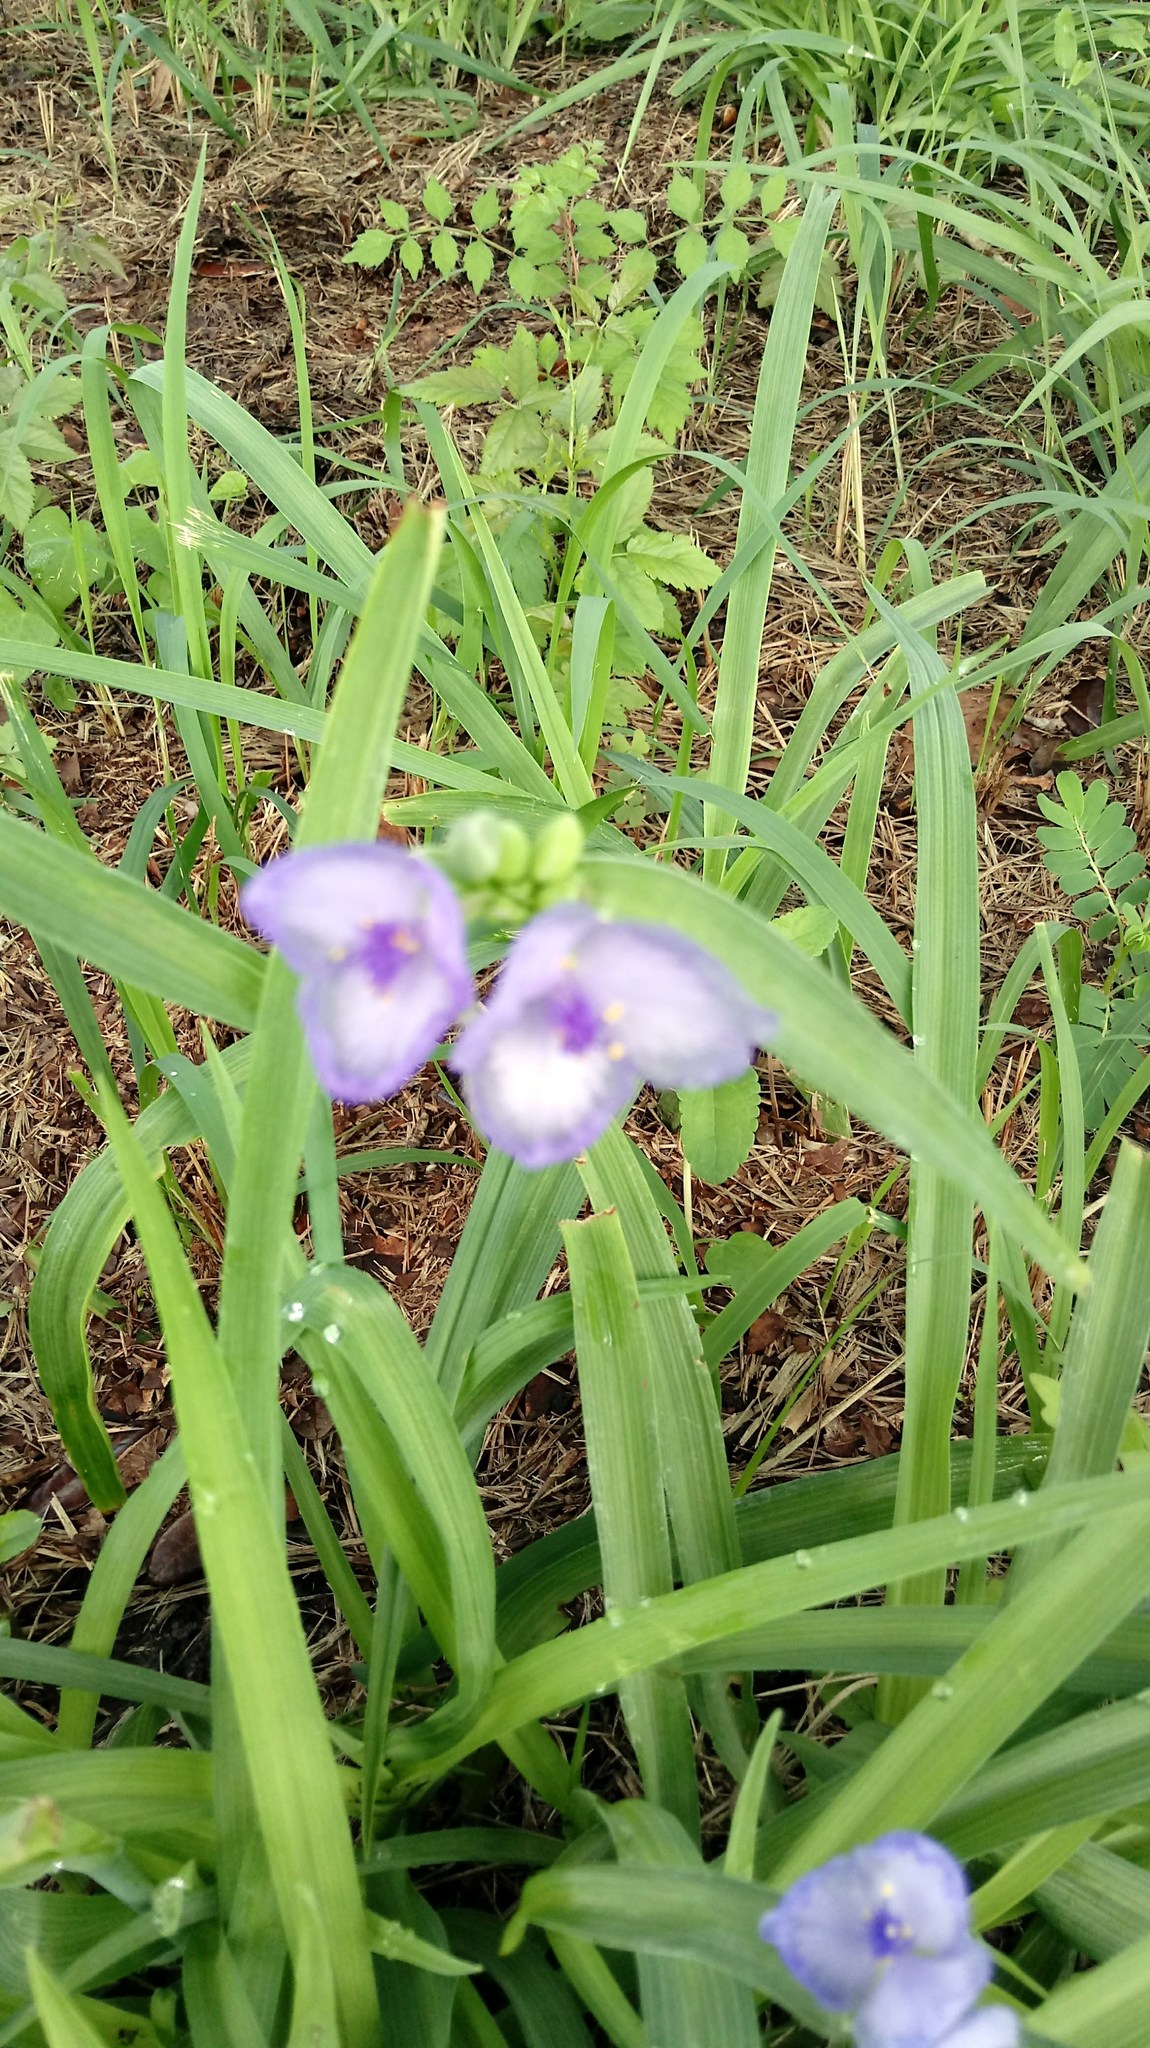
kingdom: Plantae
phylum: Tracheophyta
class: Liliopsida
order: Commelinales
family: Commelinaceae
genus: Tradescantia
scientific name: Tradescantia ohiensis
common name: Ohio spiderwort
